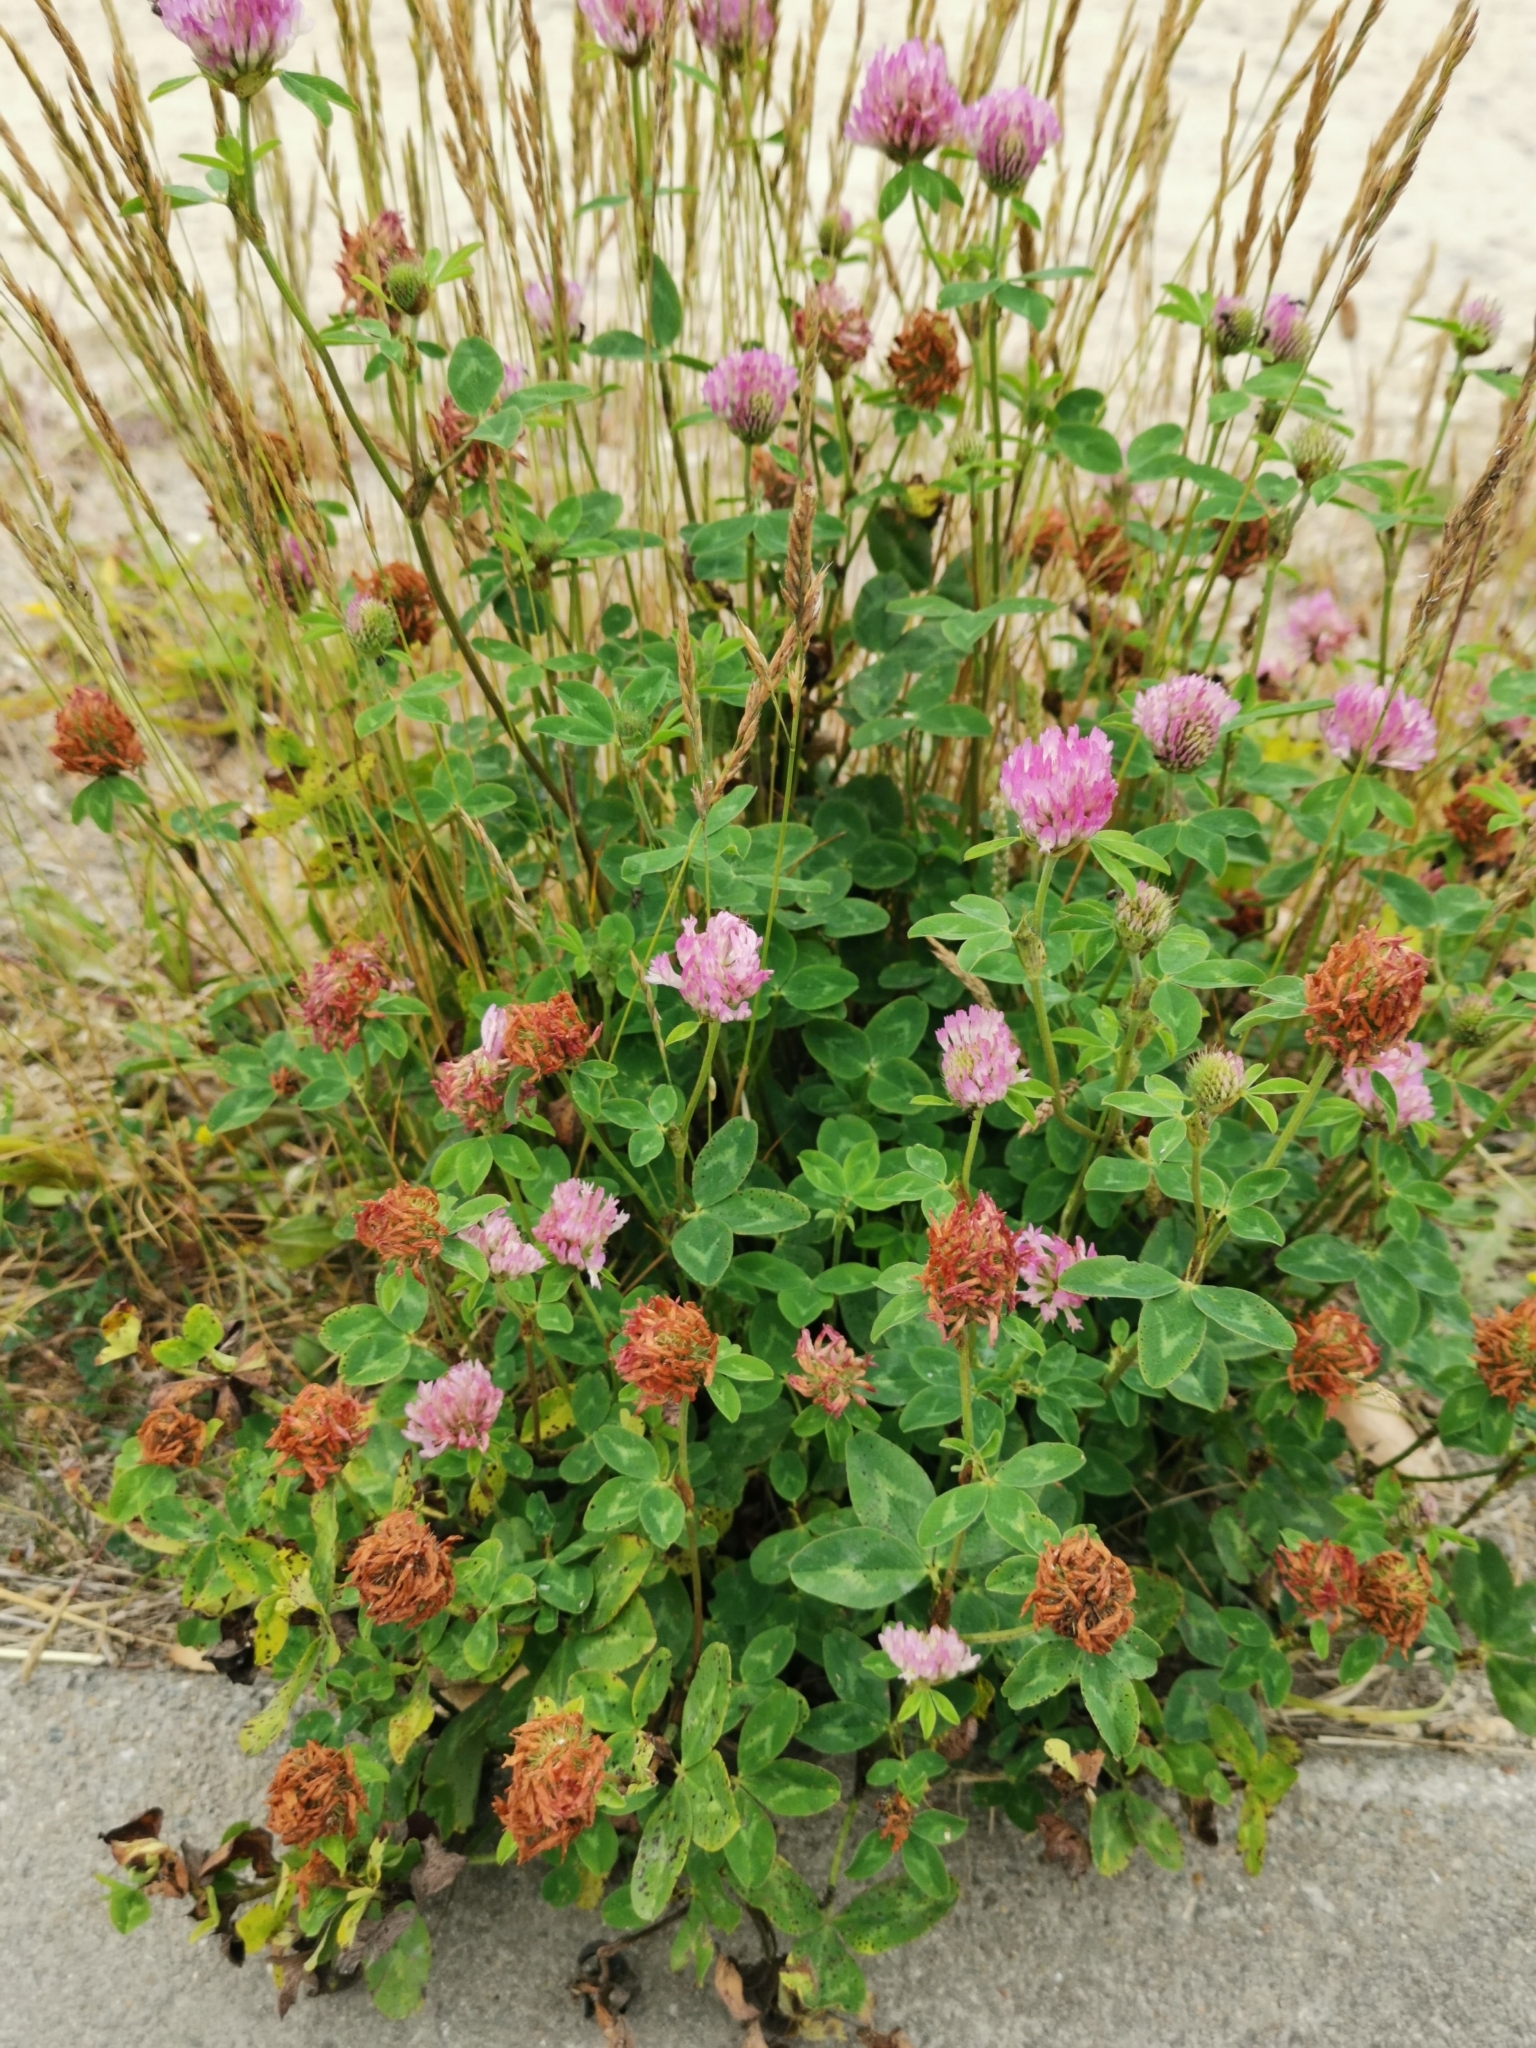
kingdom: Plantae
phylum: Tracheophyta
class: Magnoliopsida
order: Fabales
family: Fabaceae
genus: Trifolium
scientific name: Trifolium pratense
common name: Red clover
